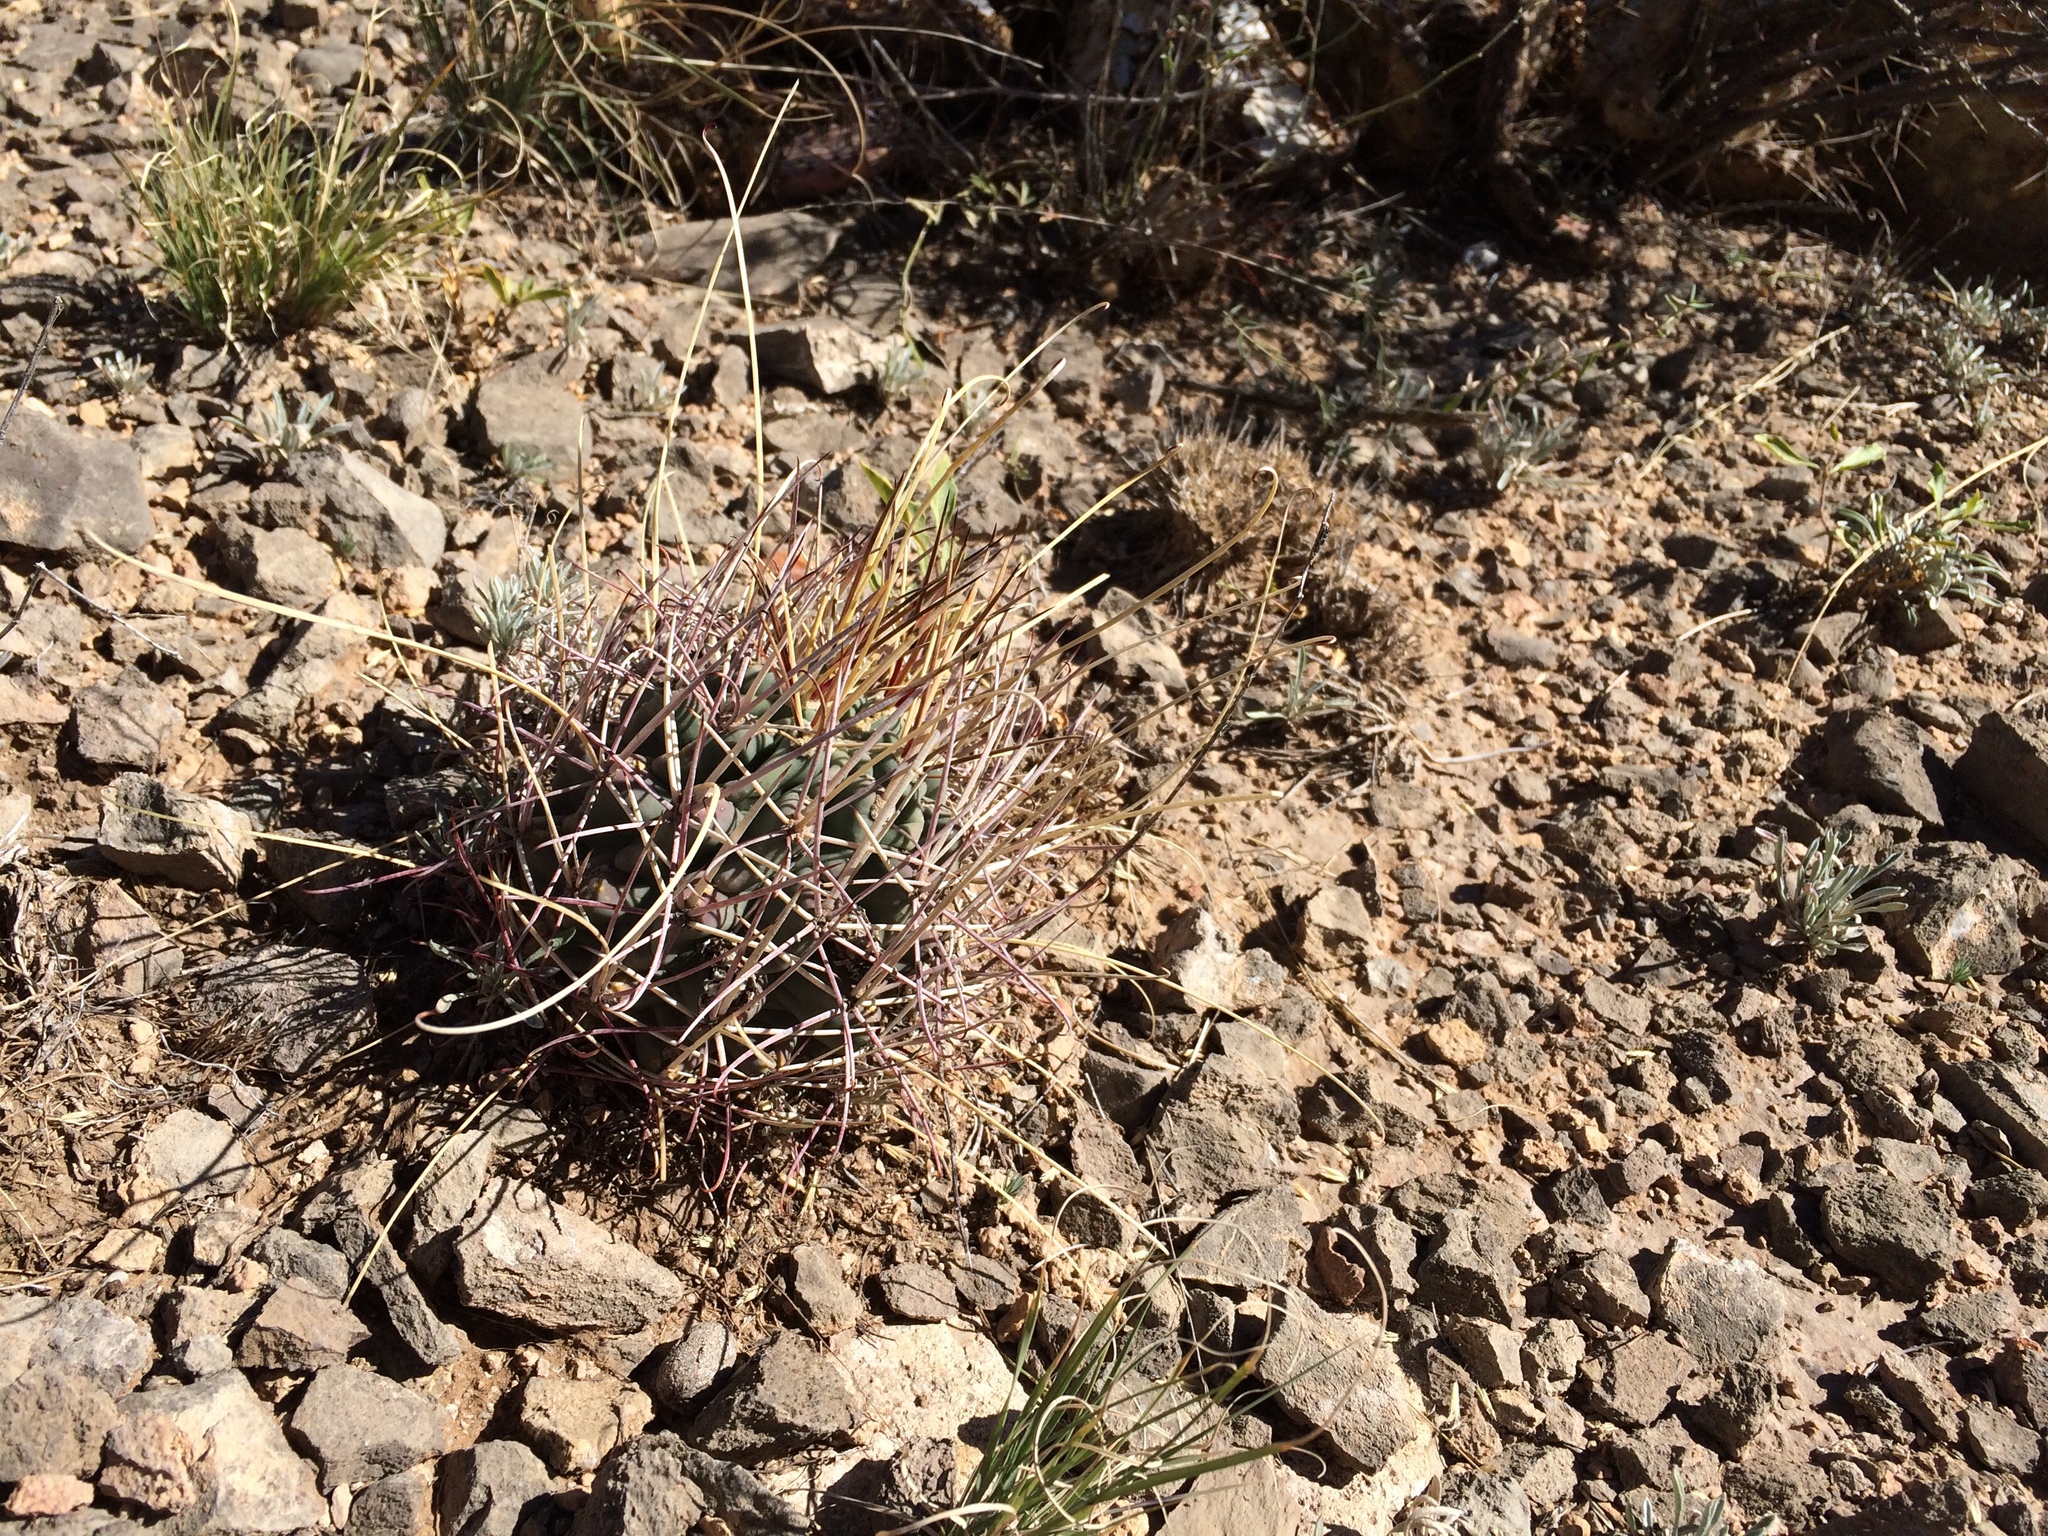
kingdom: Plantae
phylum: Tracheophyta
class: Magnoliopsida
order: Caryophyllales
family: Cactaceae
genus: Ferocactus
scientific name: Ferocactus uncinatus
